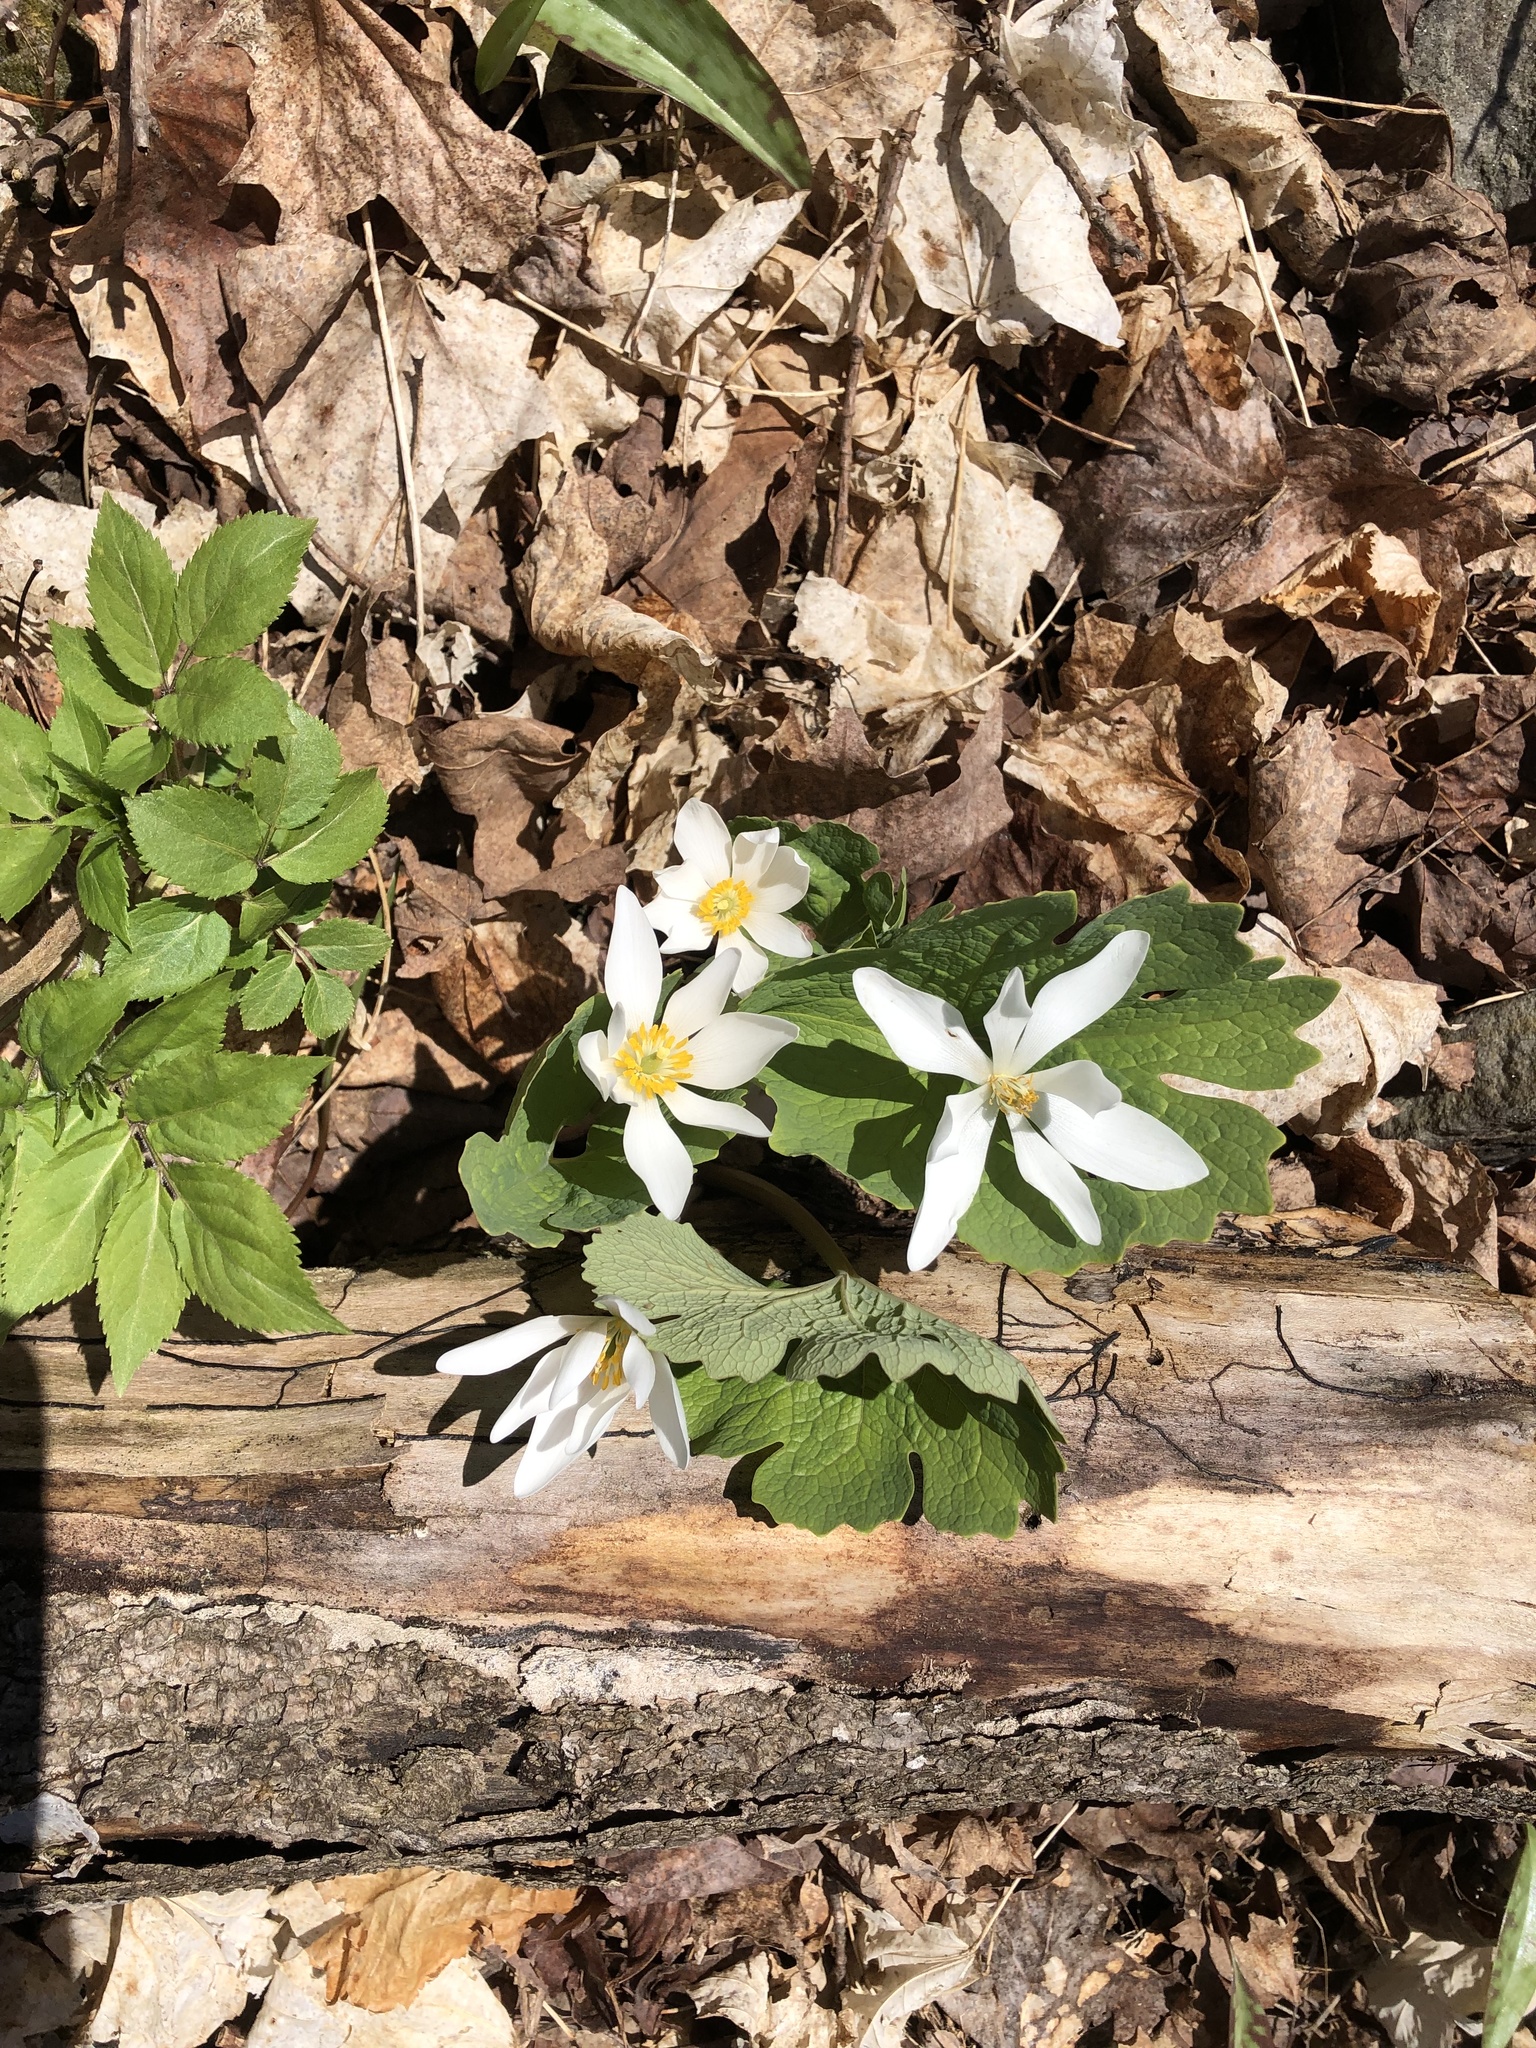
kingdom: Plantae
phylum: Tracheophyta
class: Magnoliopsida
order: Ranunculales
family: Papaveraceae
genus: Sanguinaria
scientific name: Sanguinaria canadensis
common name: Bloodroot
